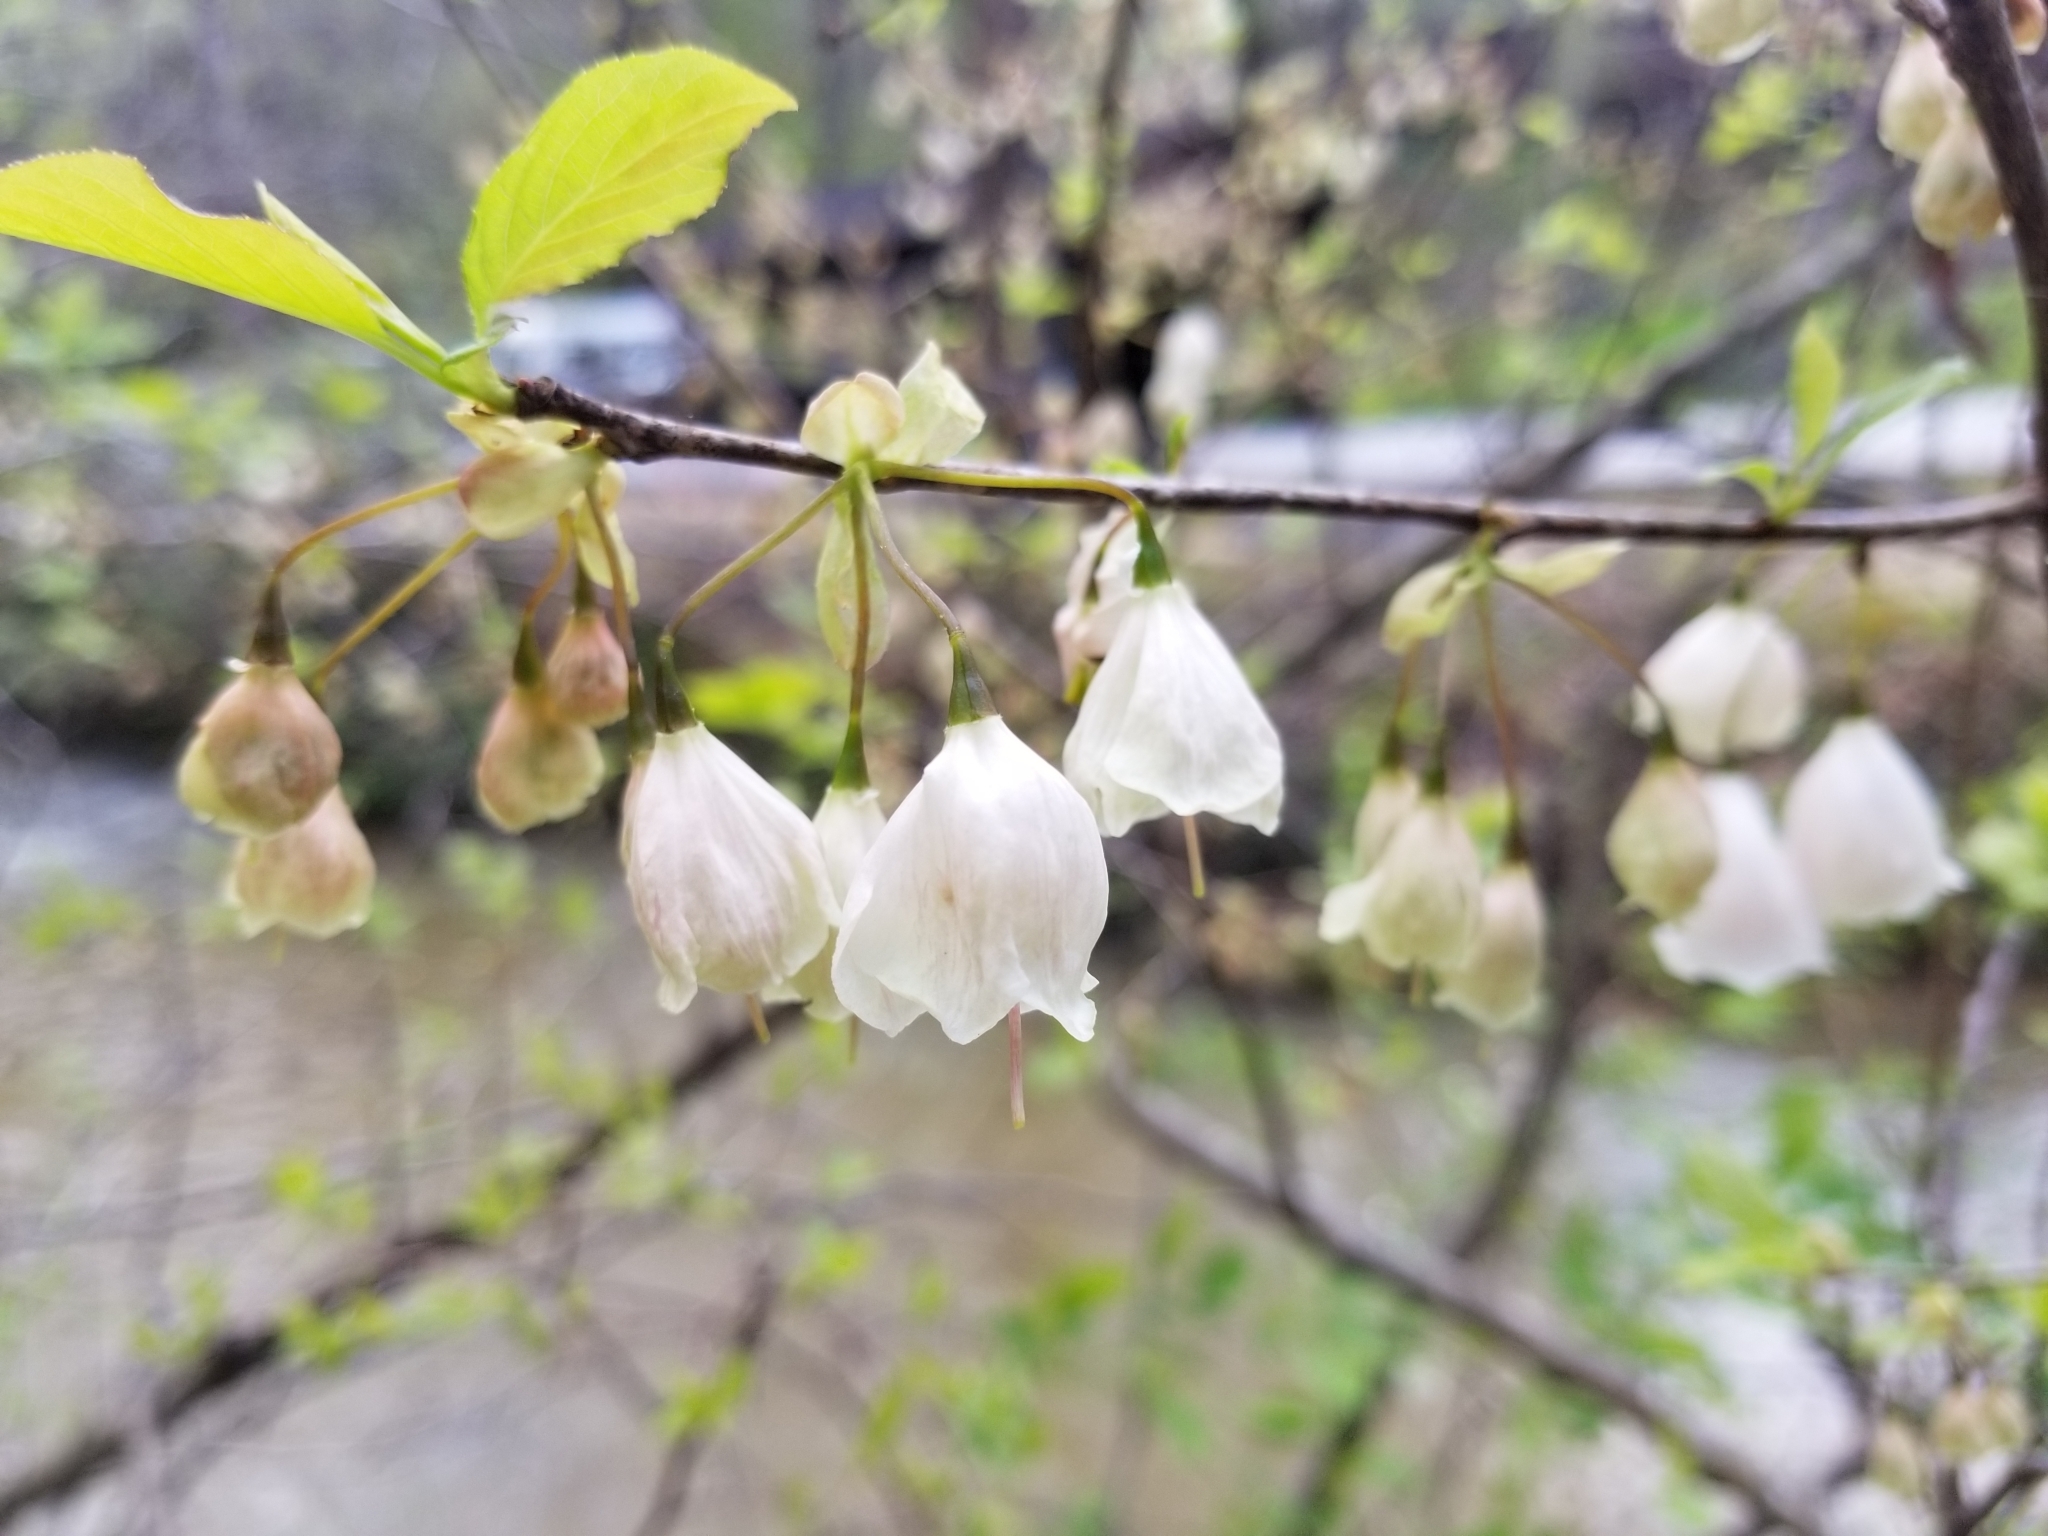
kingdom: Plantae
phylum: Tracheophyta
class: Magnoliopsida
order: Ericales
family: Styracaceae
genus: Halesia
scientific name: Halesia carolina
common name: Carolina silverbell
